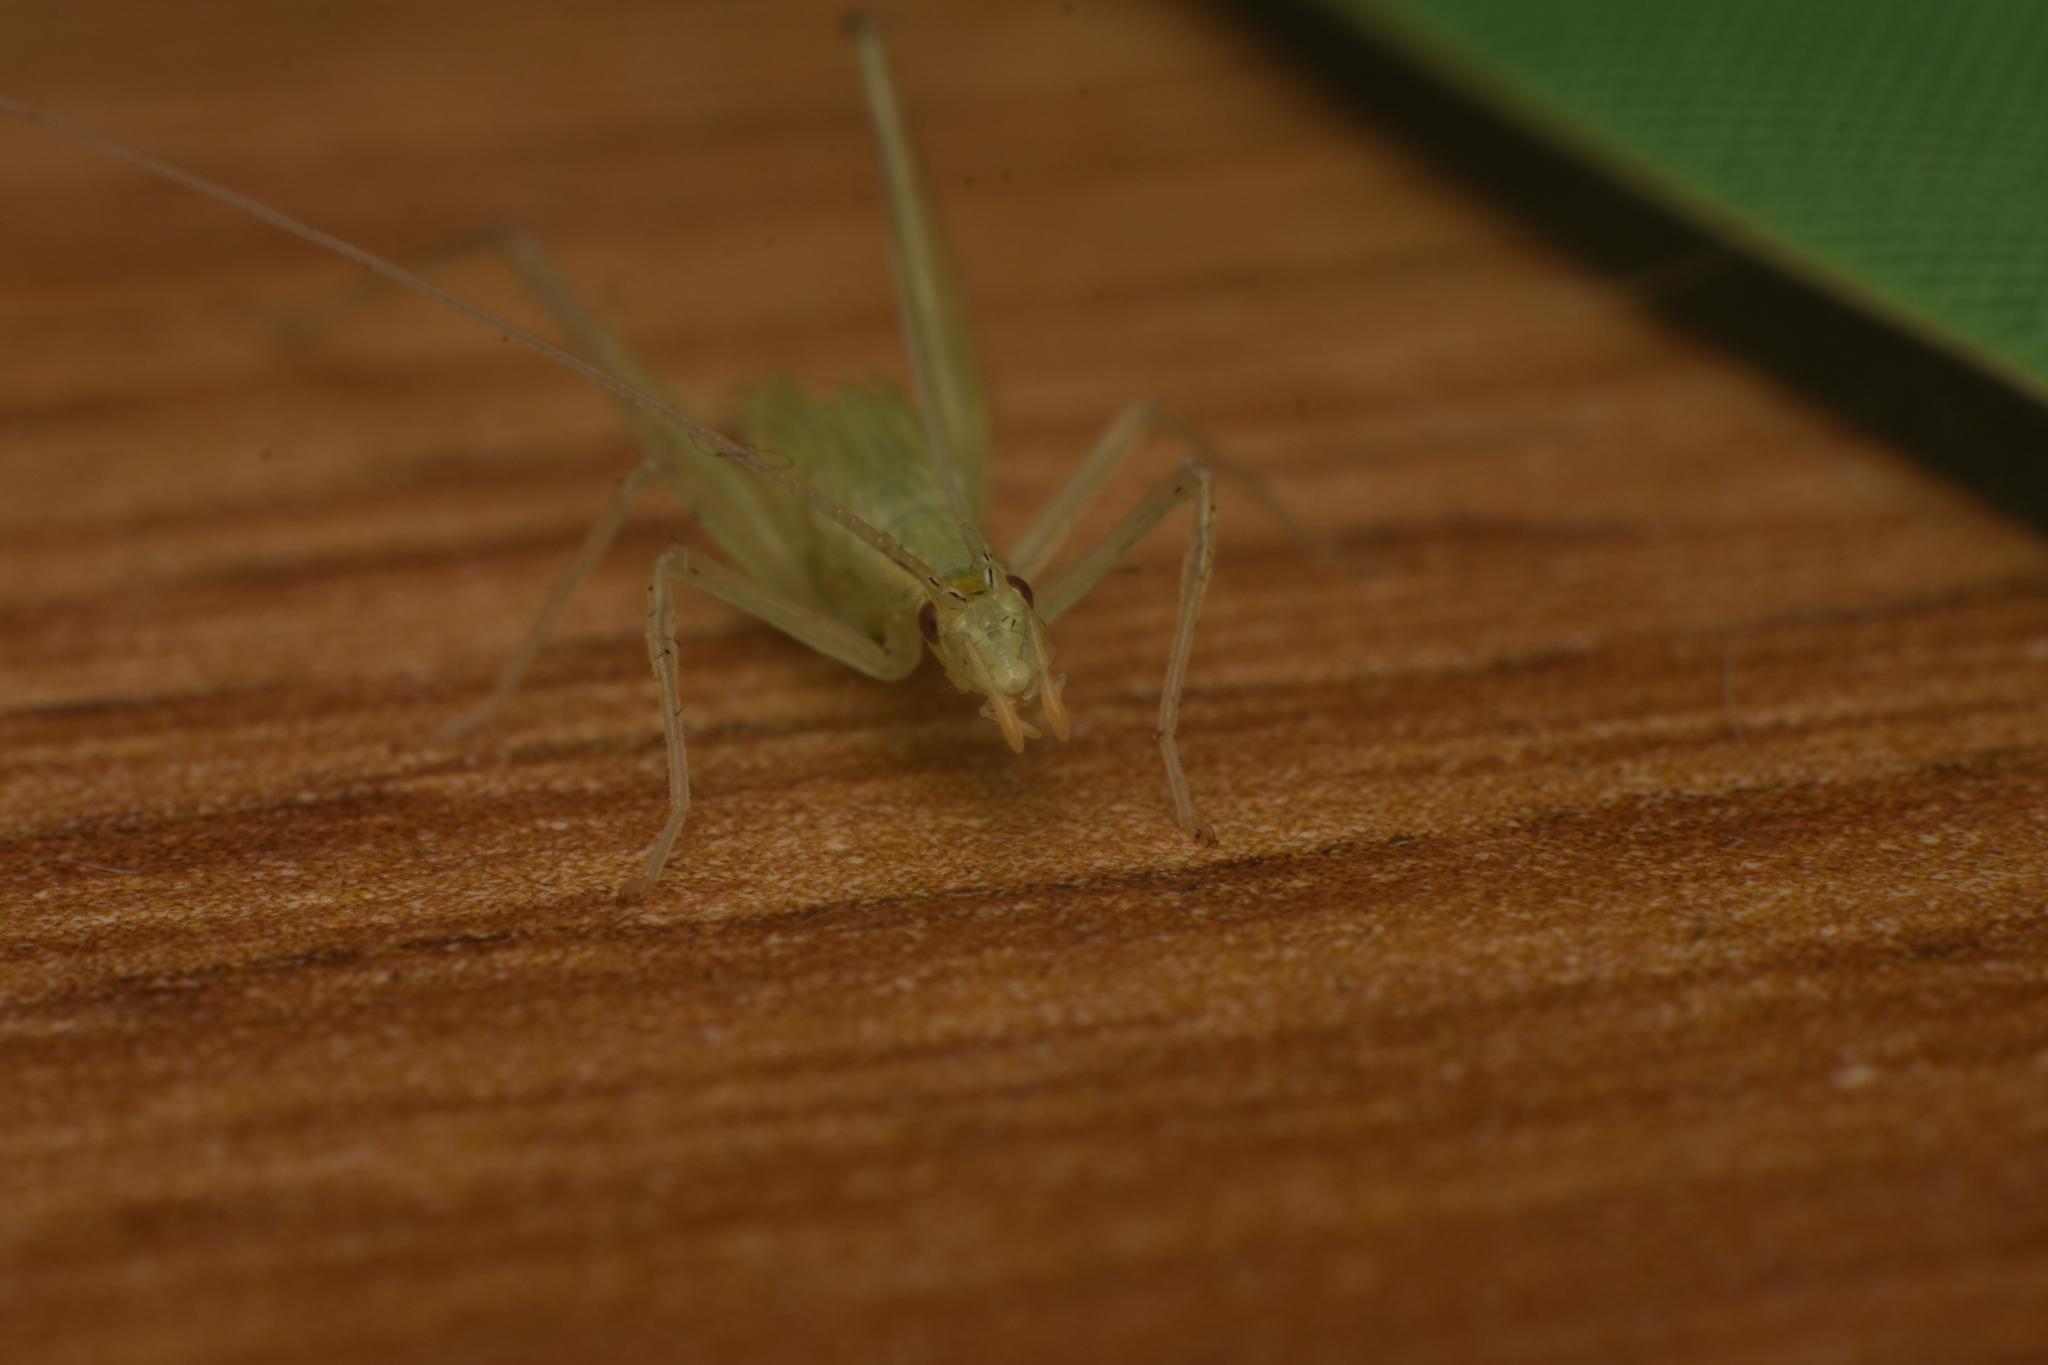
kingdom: Animalia
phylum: Arthropoda
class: Insecta
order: Orthoptera
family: Gryllidae
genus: Oecanthus
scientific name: Oecanthus leptogrammus
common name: Thin-lined tree cricket
